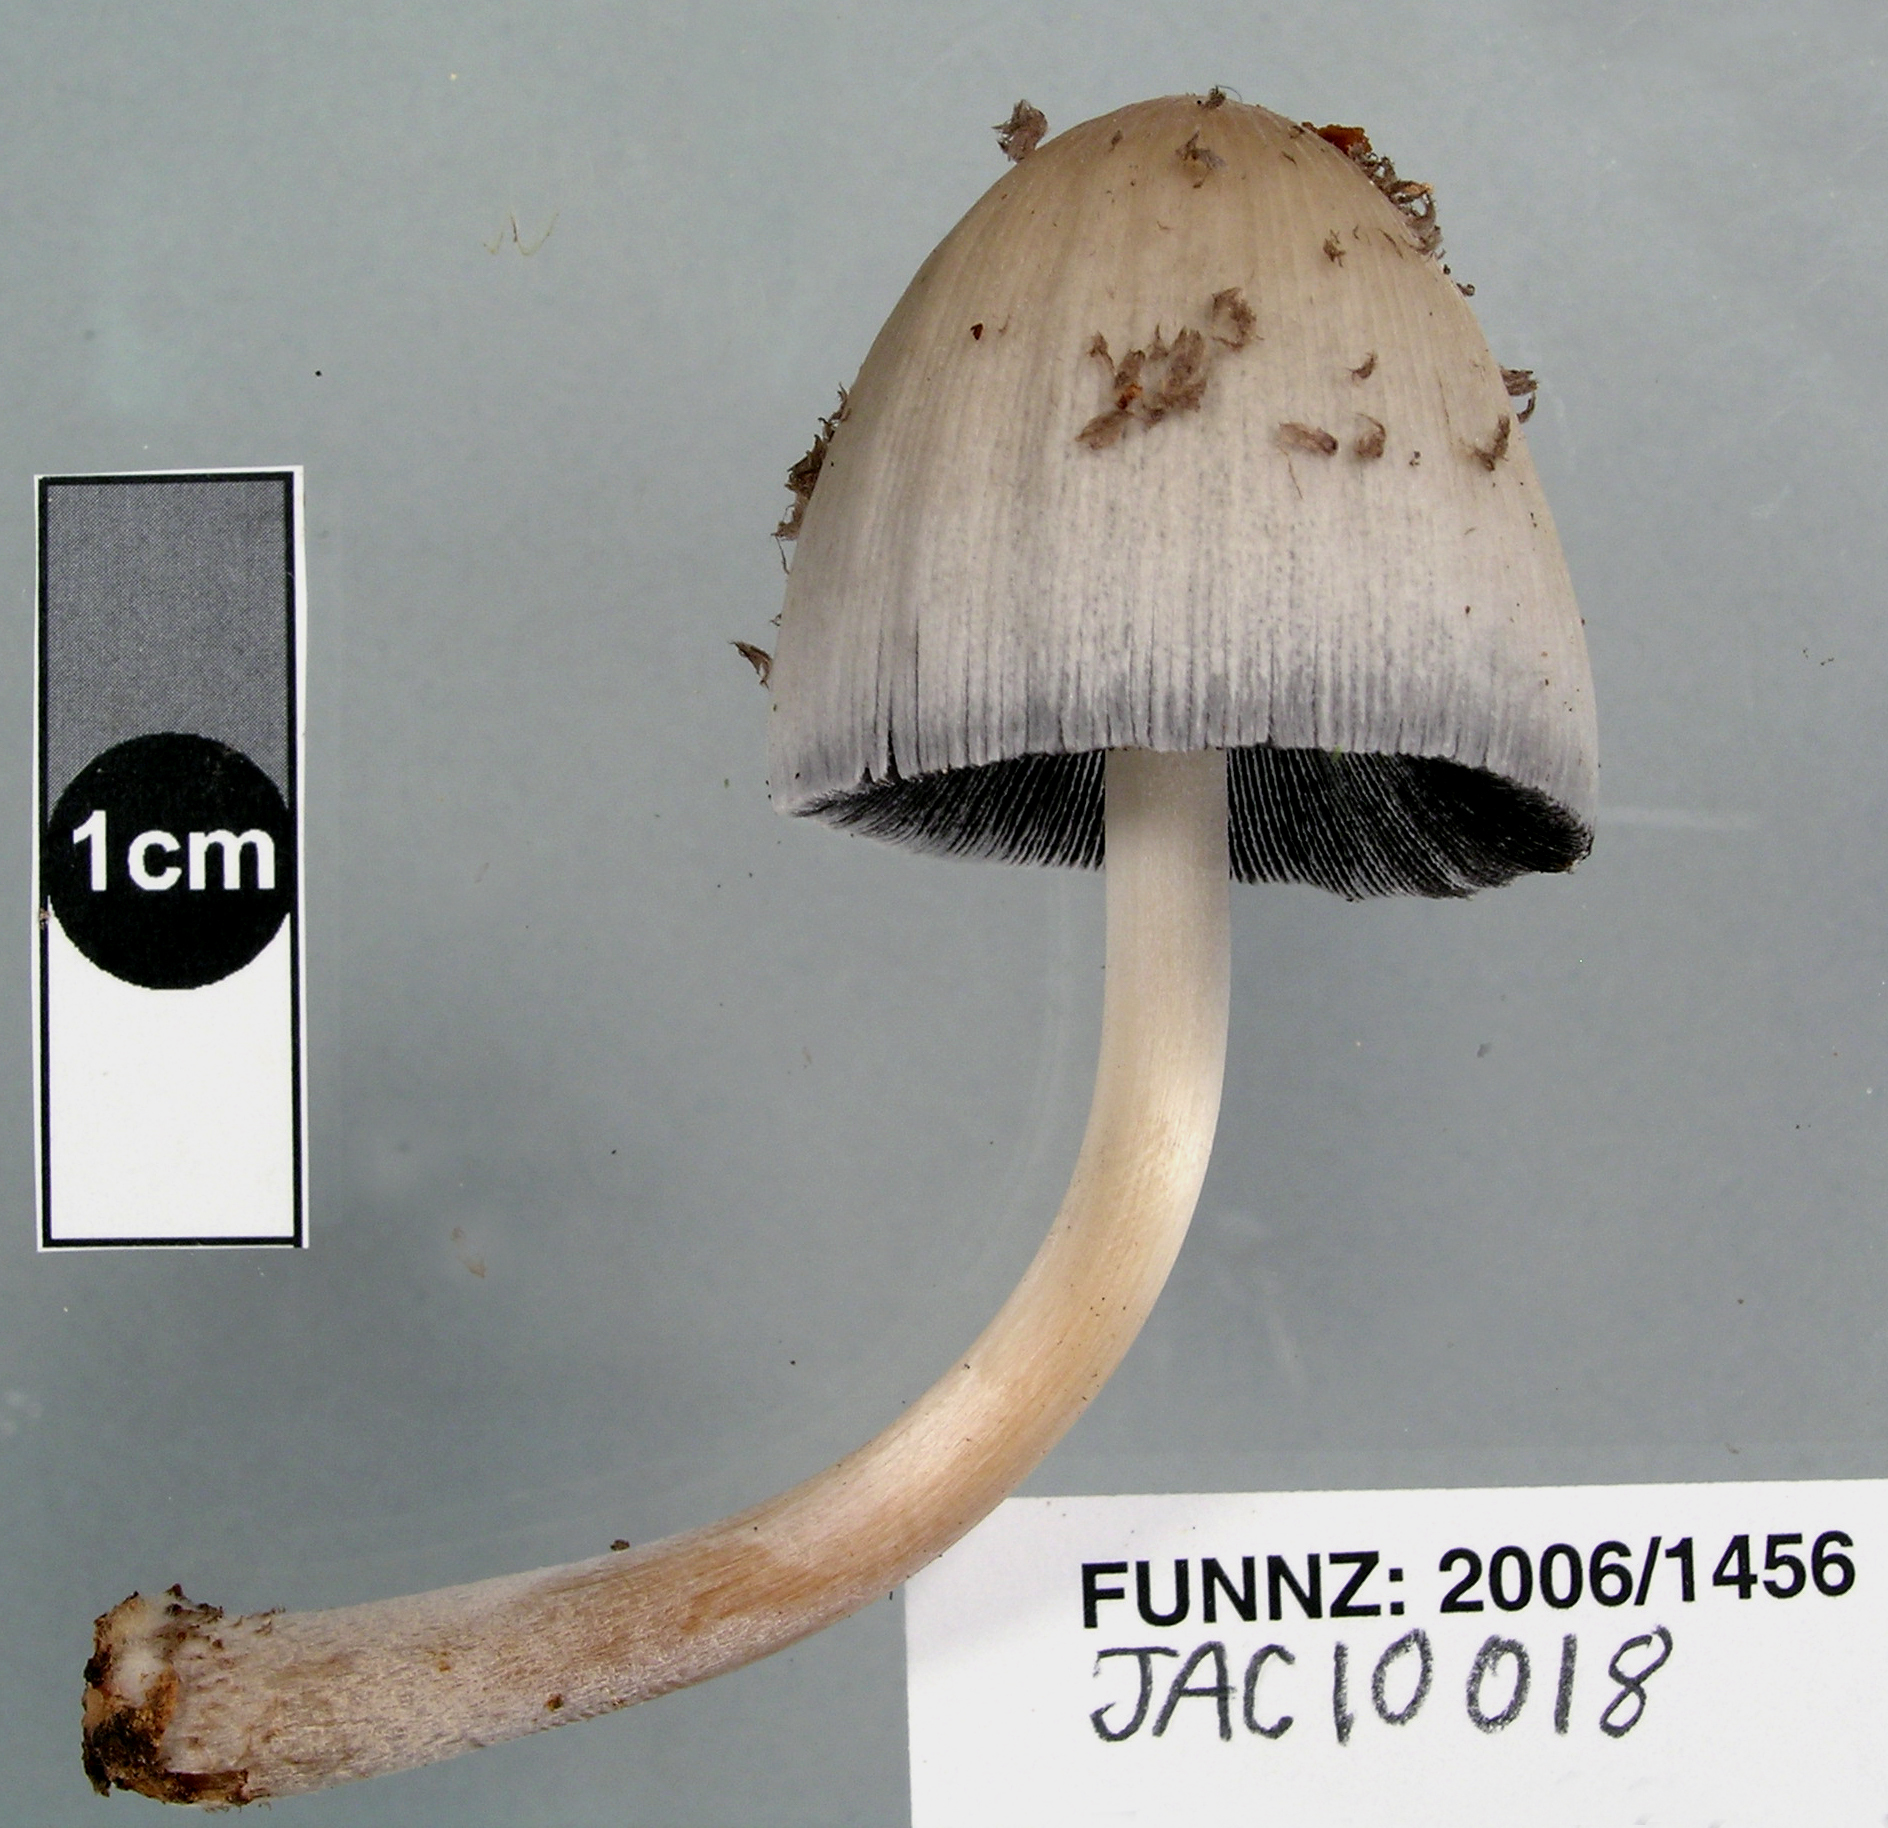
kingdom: Fungi
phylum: Basidiomycota
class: Agaricomycetes
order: Agaricales
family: Psathyrellaceae
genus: Coprinopsis
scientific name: Coprinopsis mitrispora
